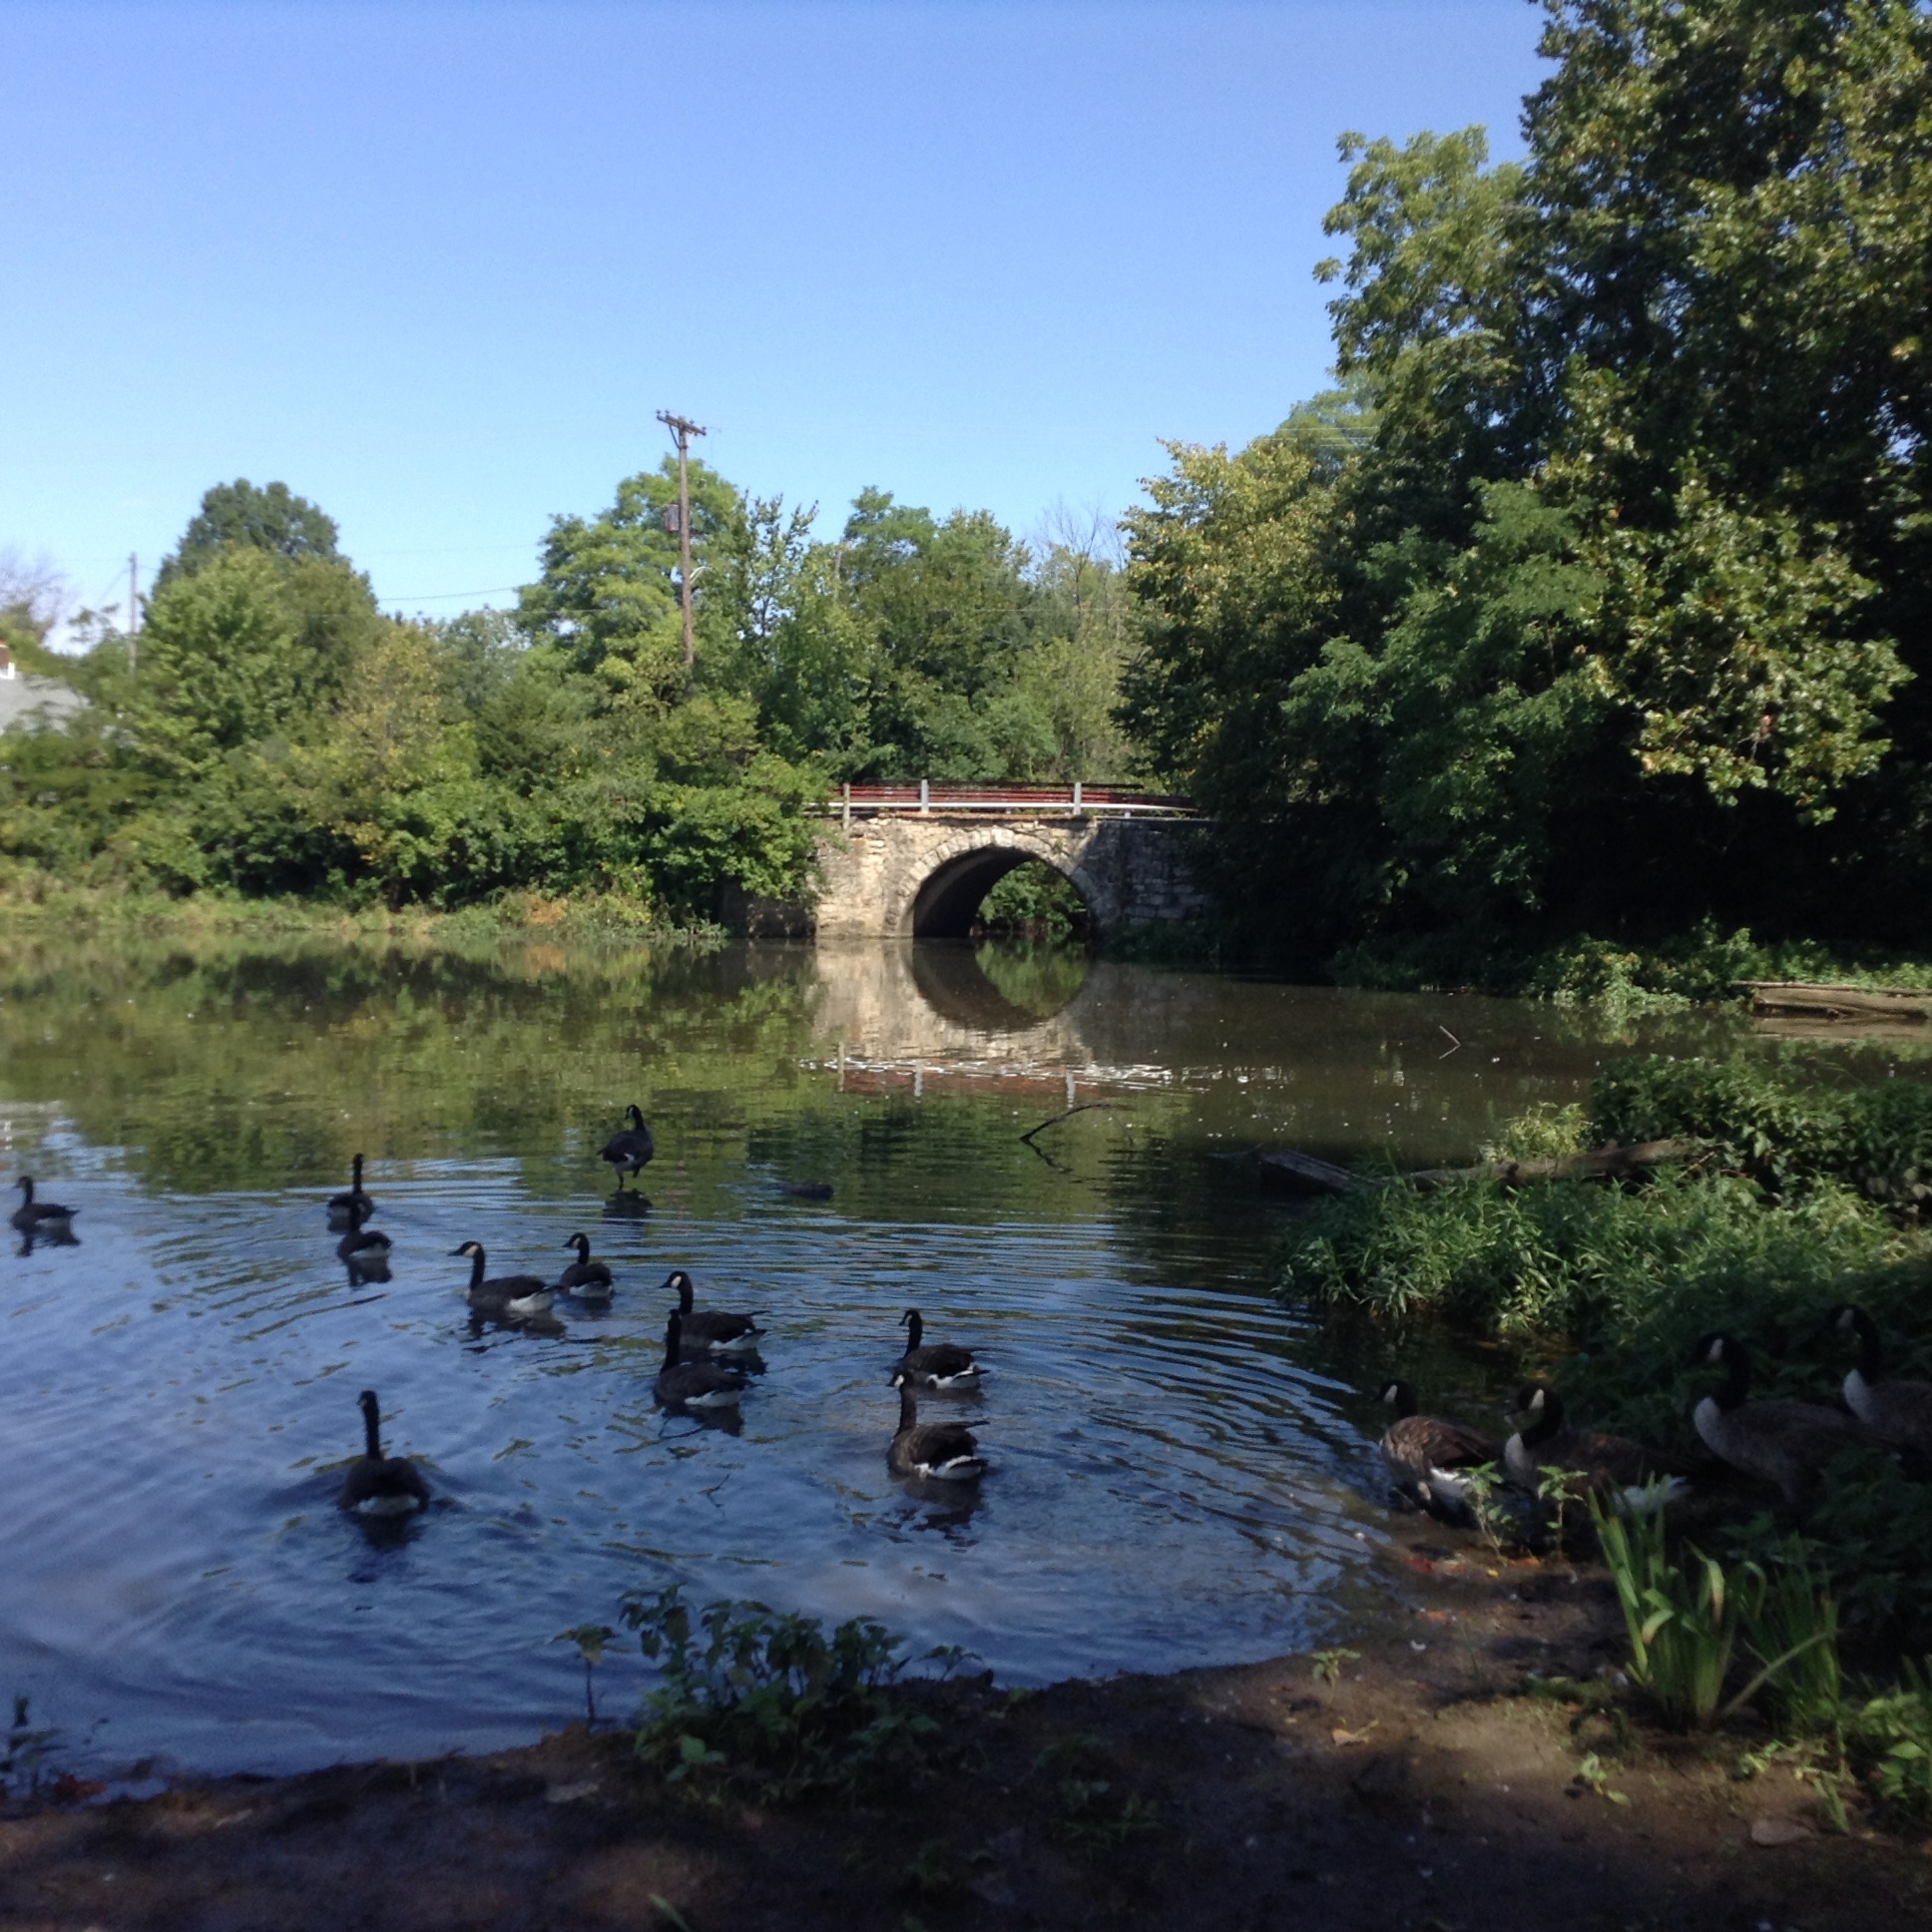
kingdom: Animalia
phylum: Chordata
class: Aves
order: Anseriformes
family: Anatidae
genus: Branta
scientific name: Branta canadensis
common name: Canada goose
